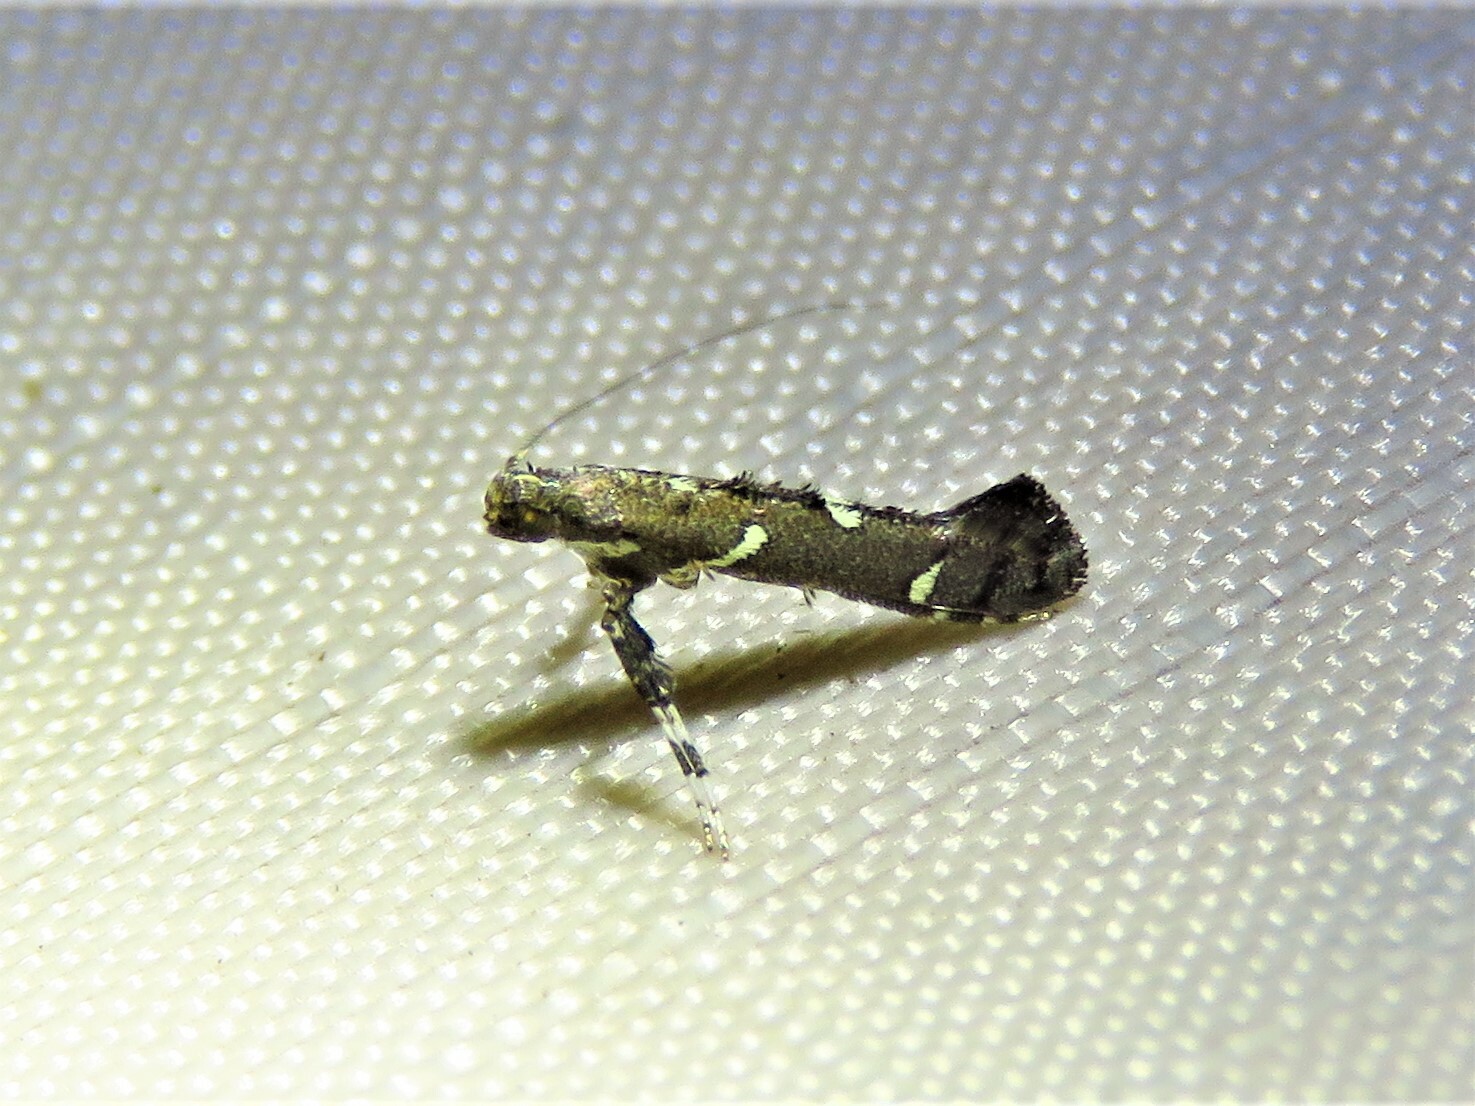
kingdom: Animalia
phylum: Arthropoda
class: Insecta
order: Lepidoptera
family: Gracillariidae
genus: Caloptilia
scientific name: Caloptilia triadicae
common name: Tallow leaf roller
